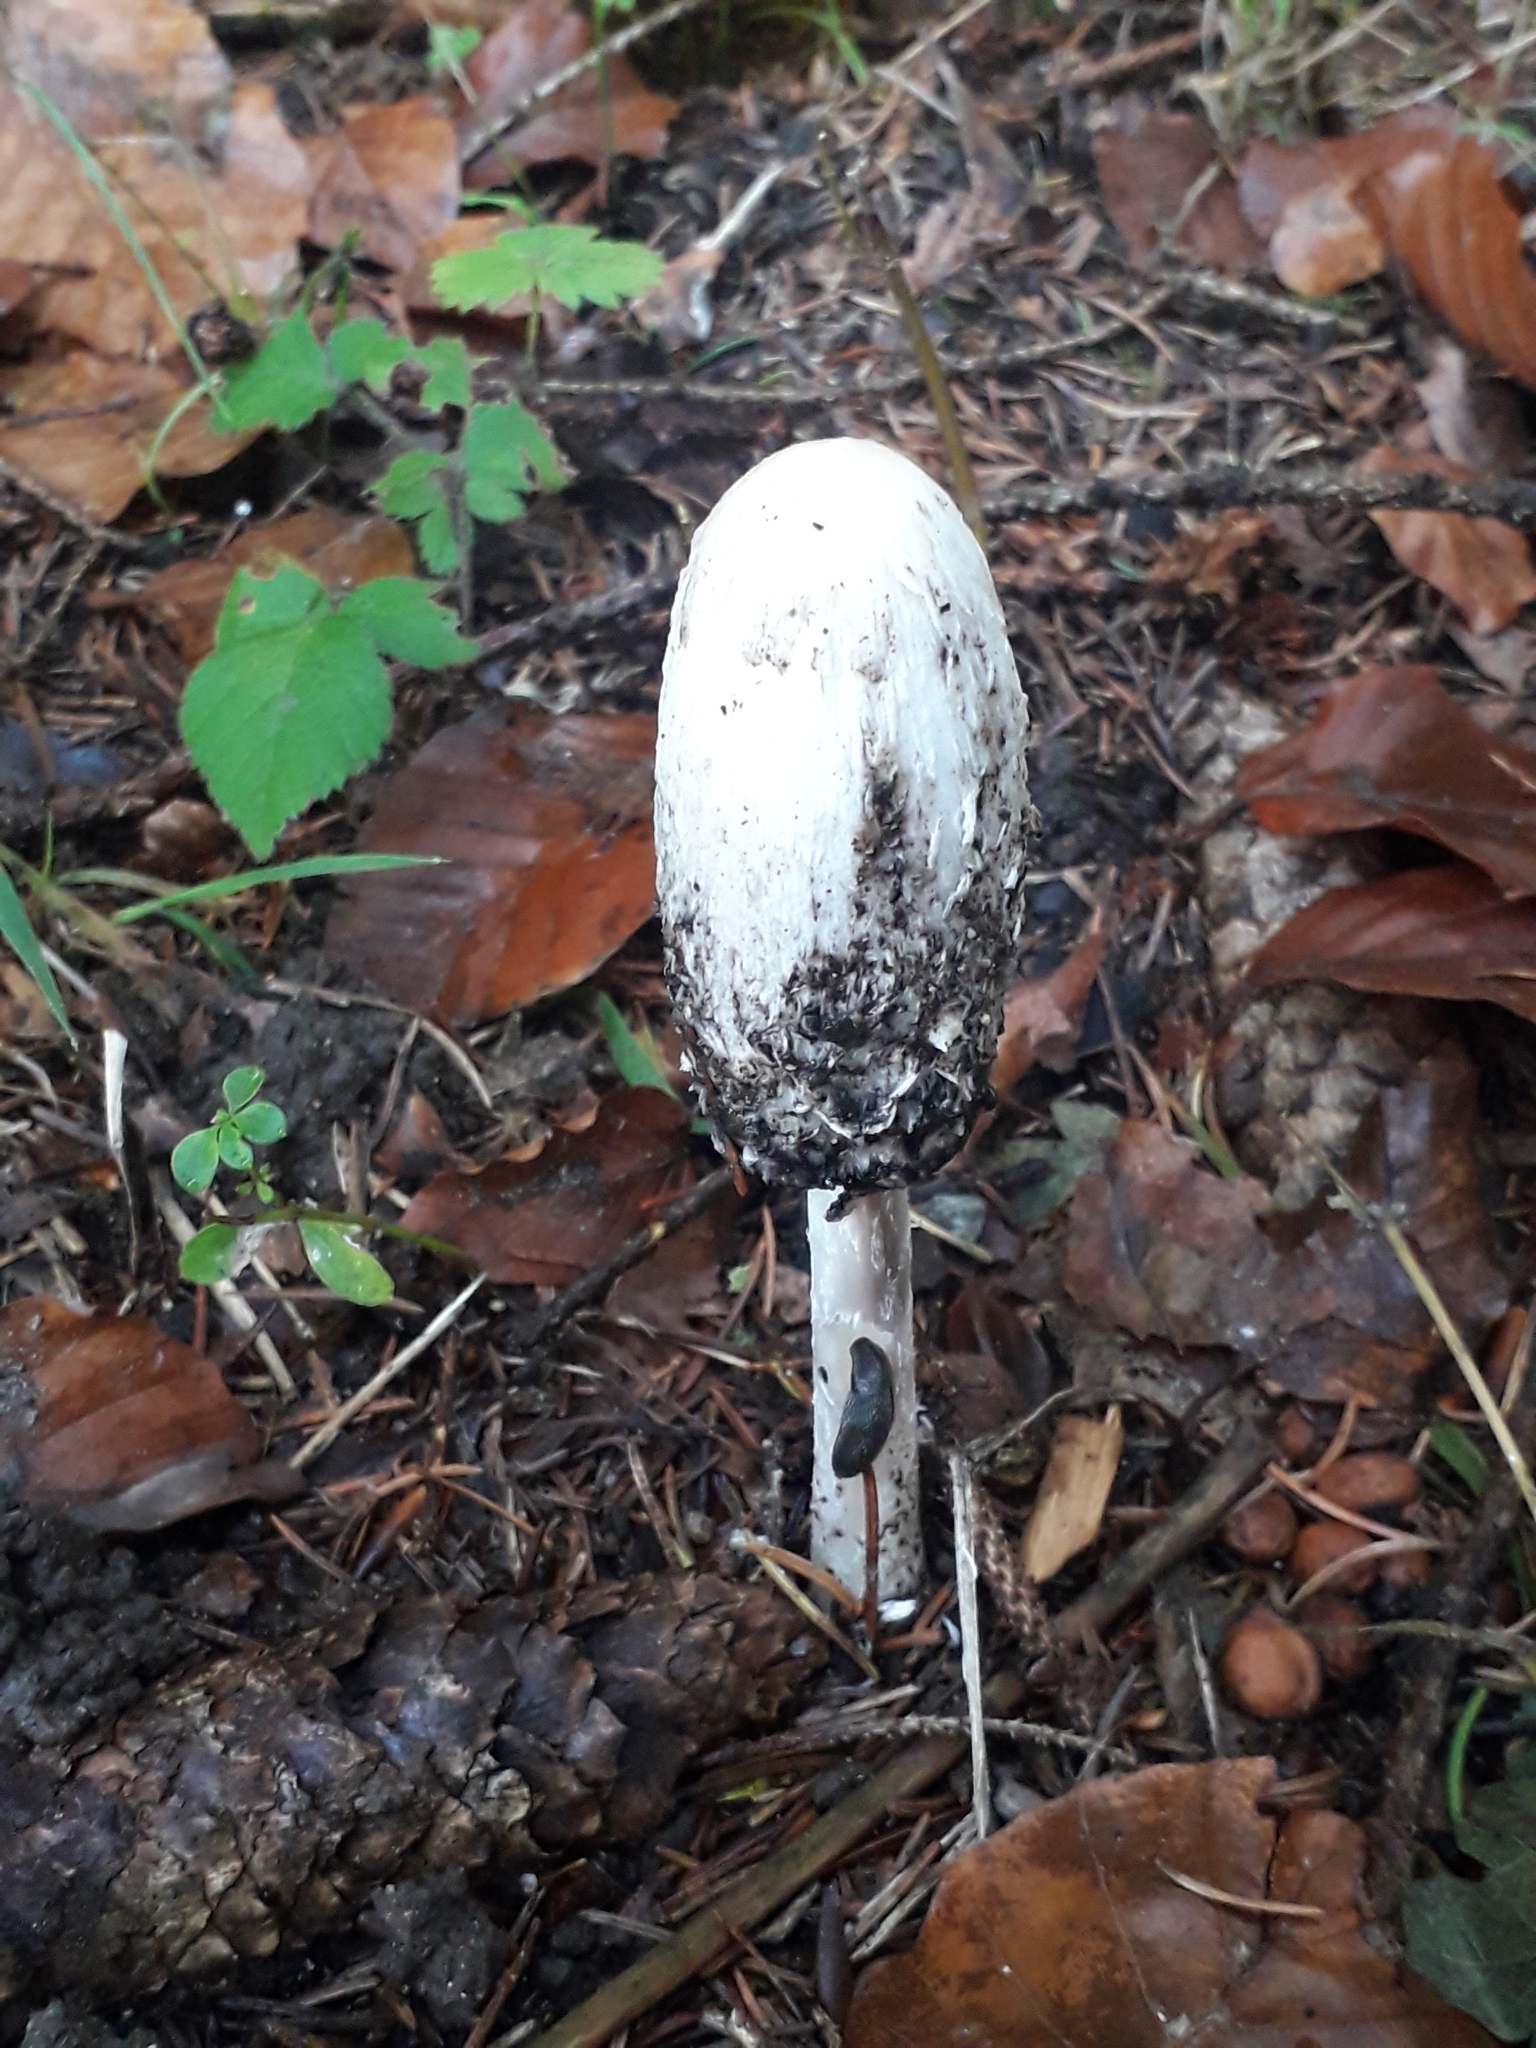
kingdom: Fungi
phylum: Basidiomycota
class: Agaricomycetes
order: Agaricales
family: Agaricaceae
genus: Coprinus
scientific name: Coprinus comatus
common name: Lawyer's wig
